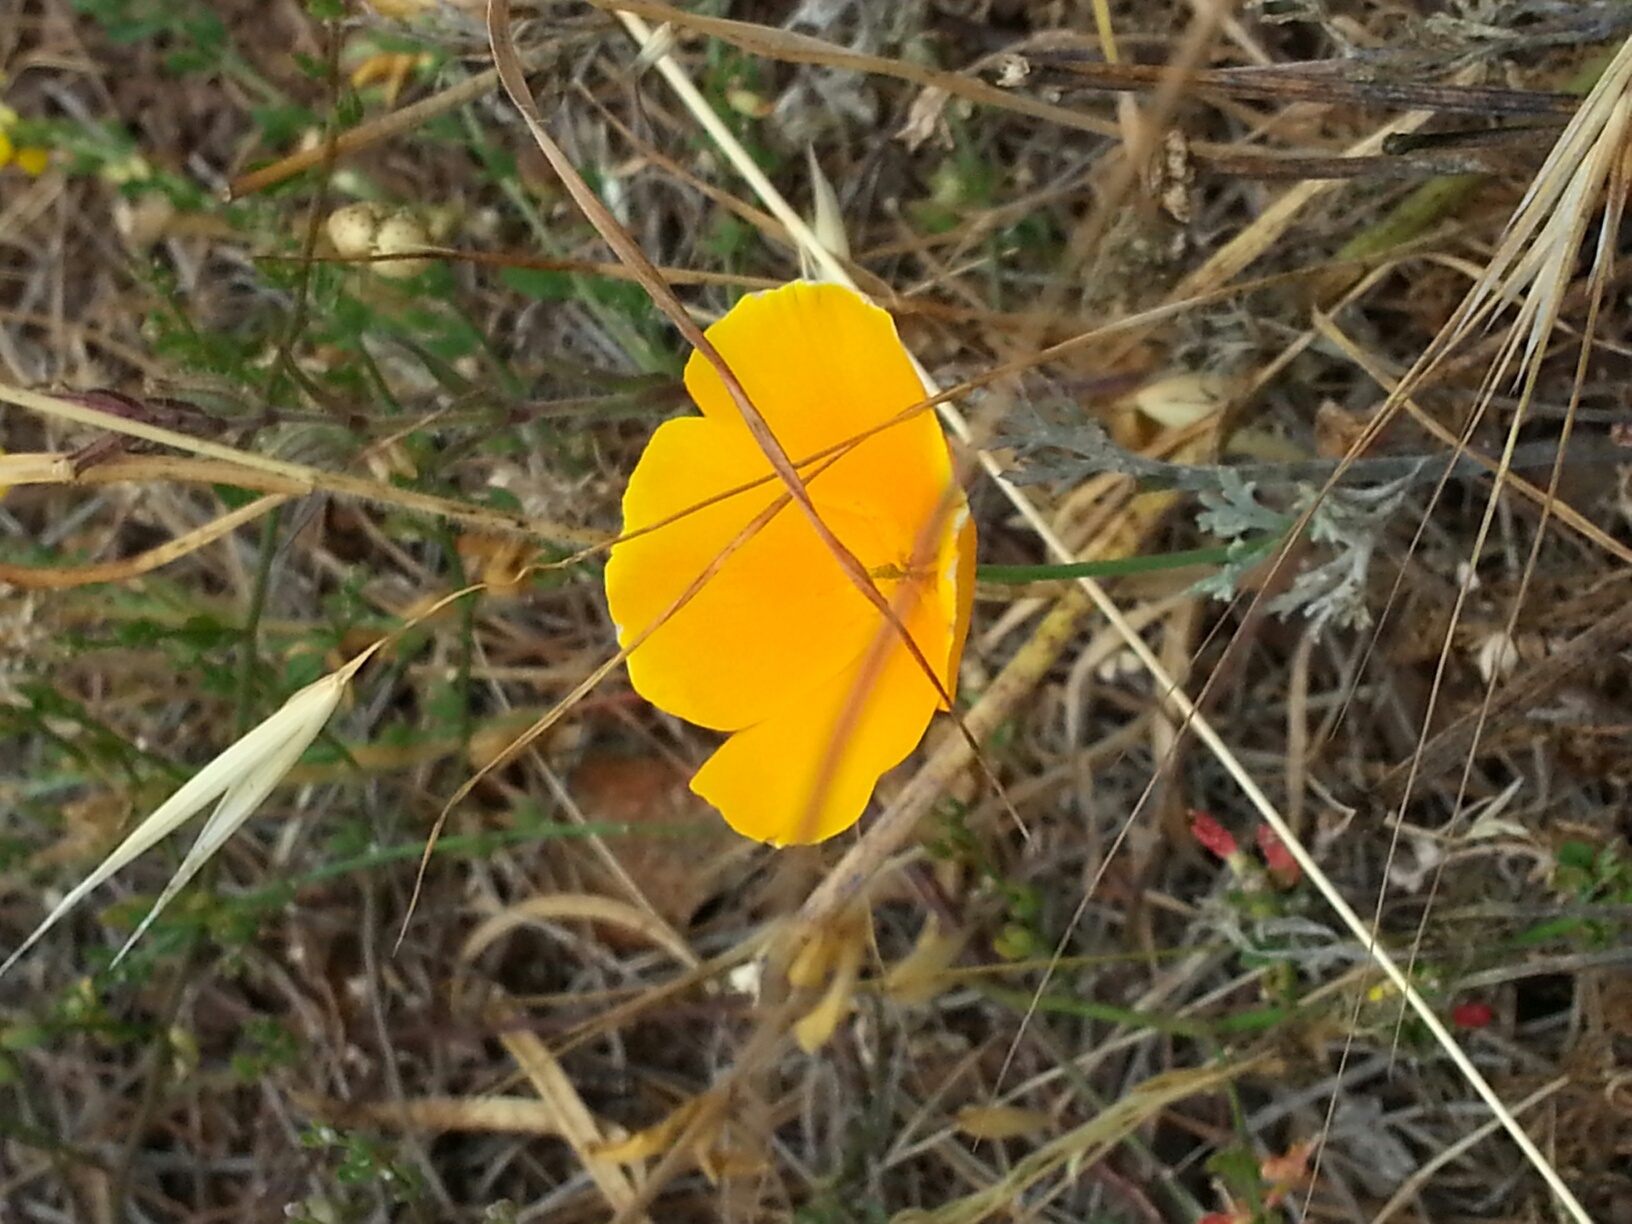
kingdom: Plantae
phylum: Tracheophyta
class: Magnoliopsida
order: Ranunculales
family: Papaveraceae
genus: Eschscholzia
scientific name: Eschscholzia californica
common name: California poppy
